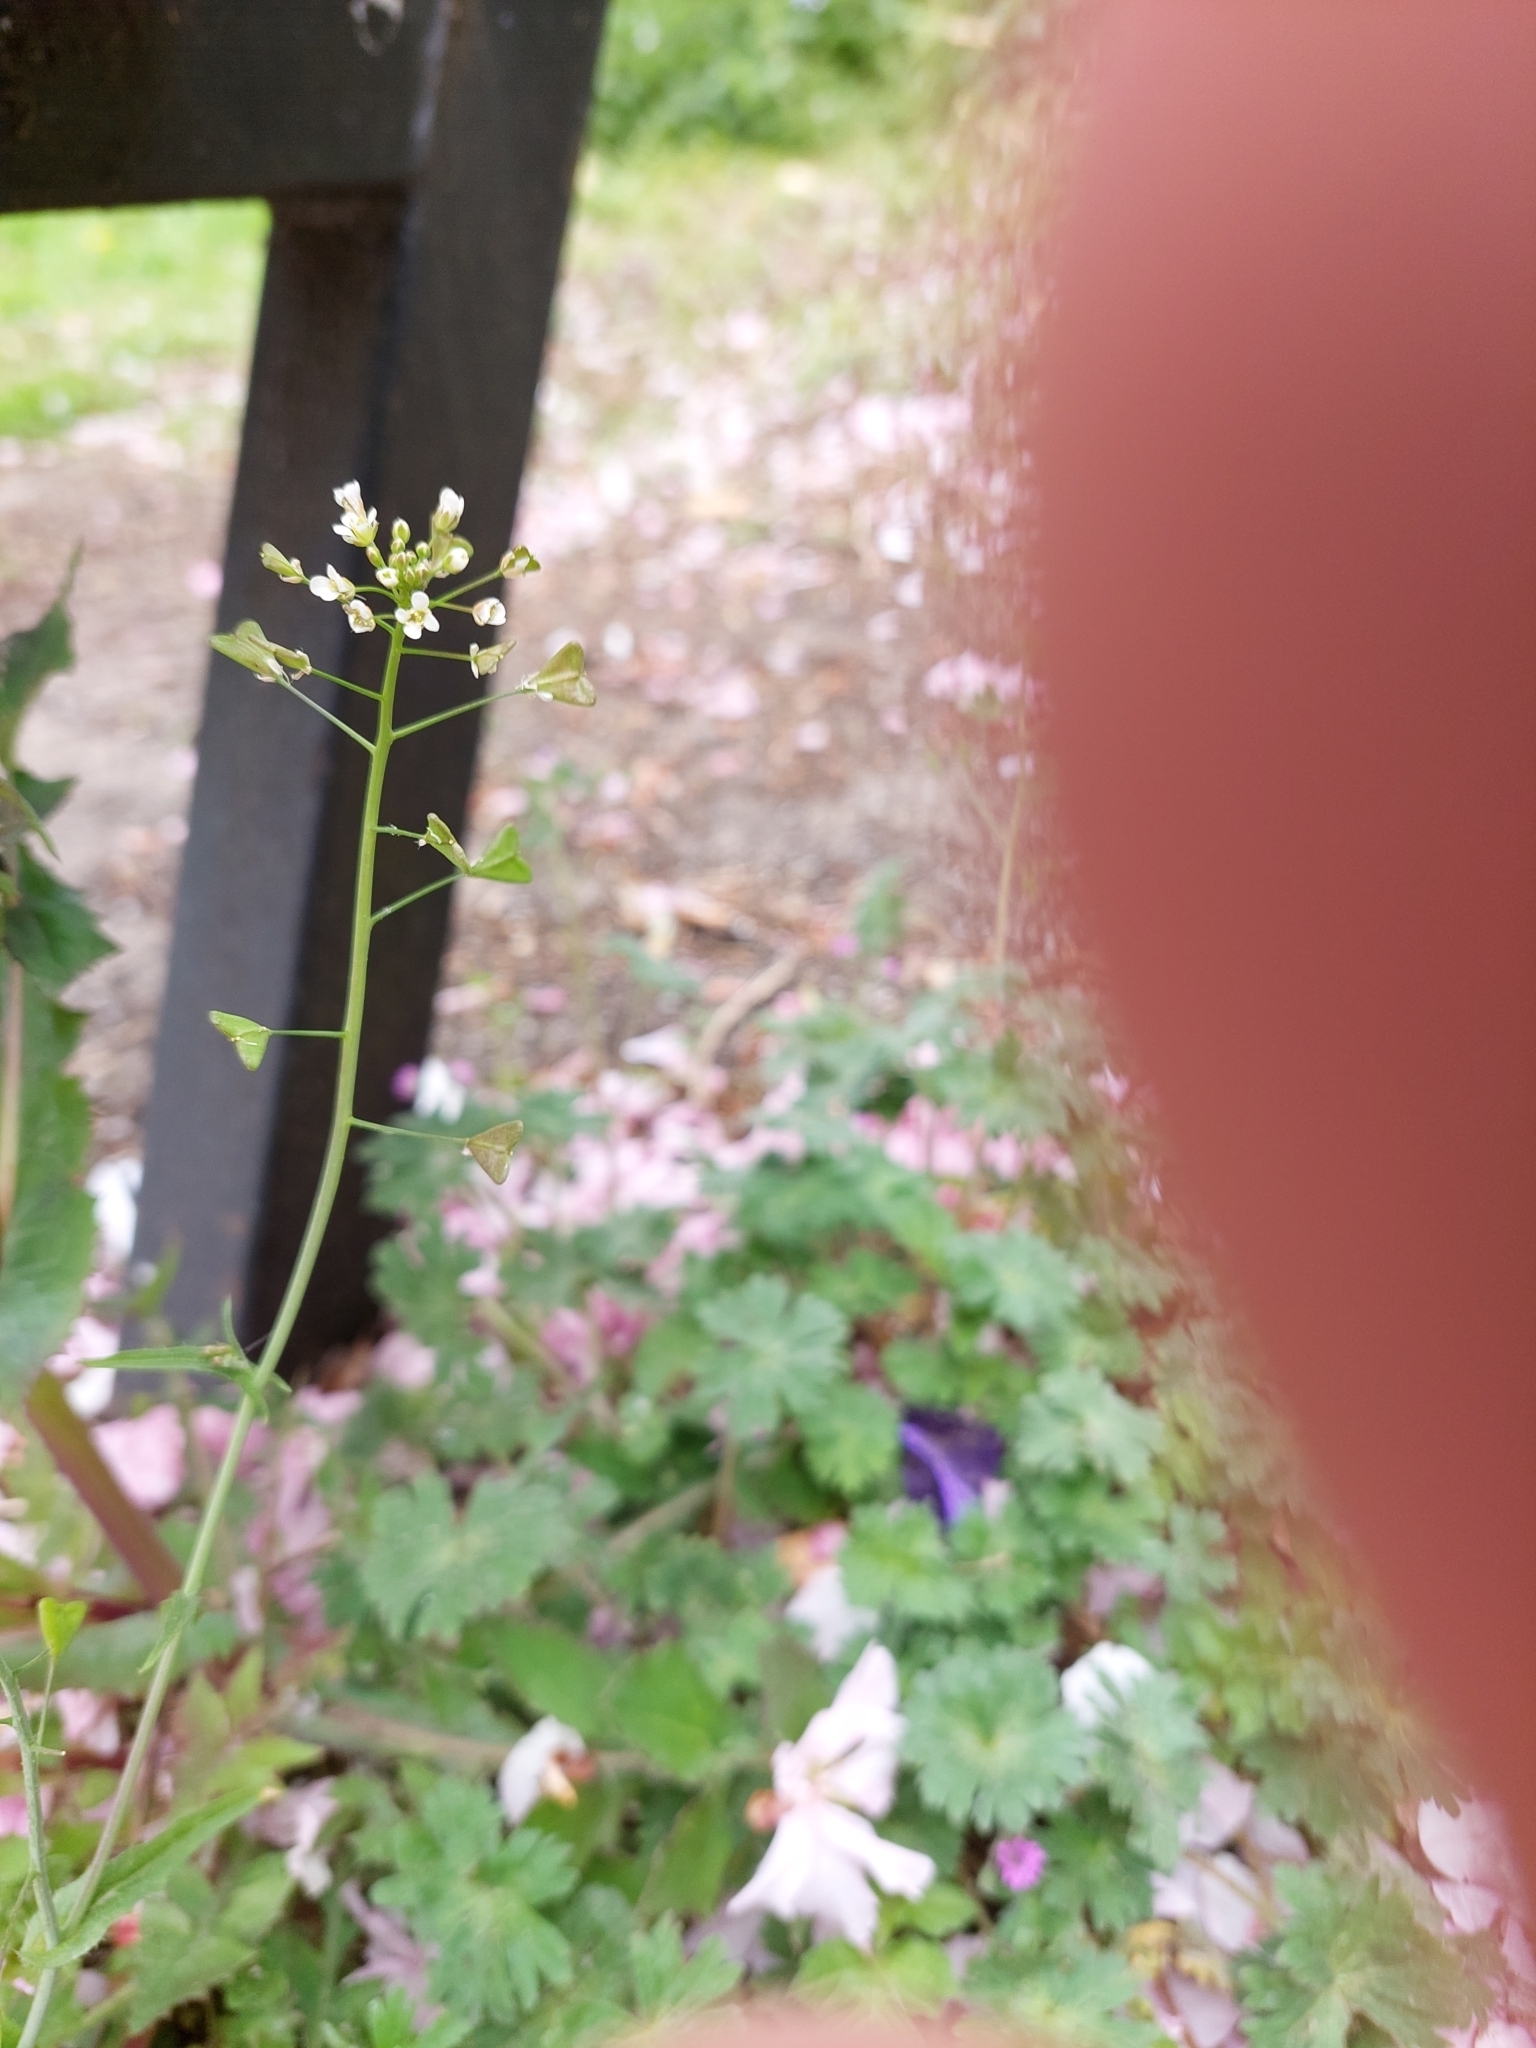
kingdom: Plantae
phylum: Tracheophyta
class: Magnoliopsida
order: Brassicales
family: Brassicaceae
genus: Capsella
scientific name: Capsella bursa-pastoris
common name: Shepherd's purse
